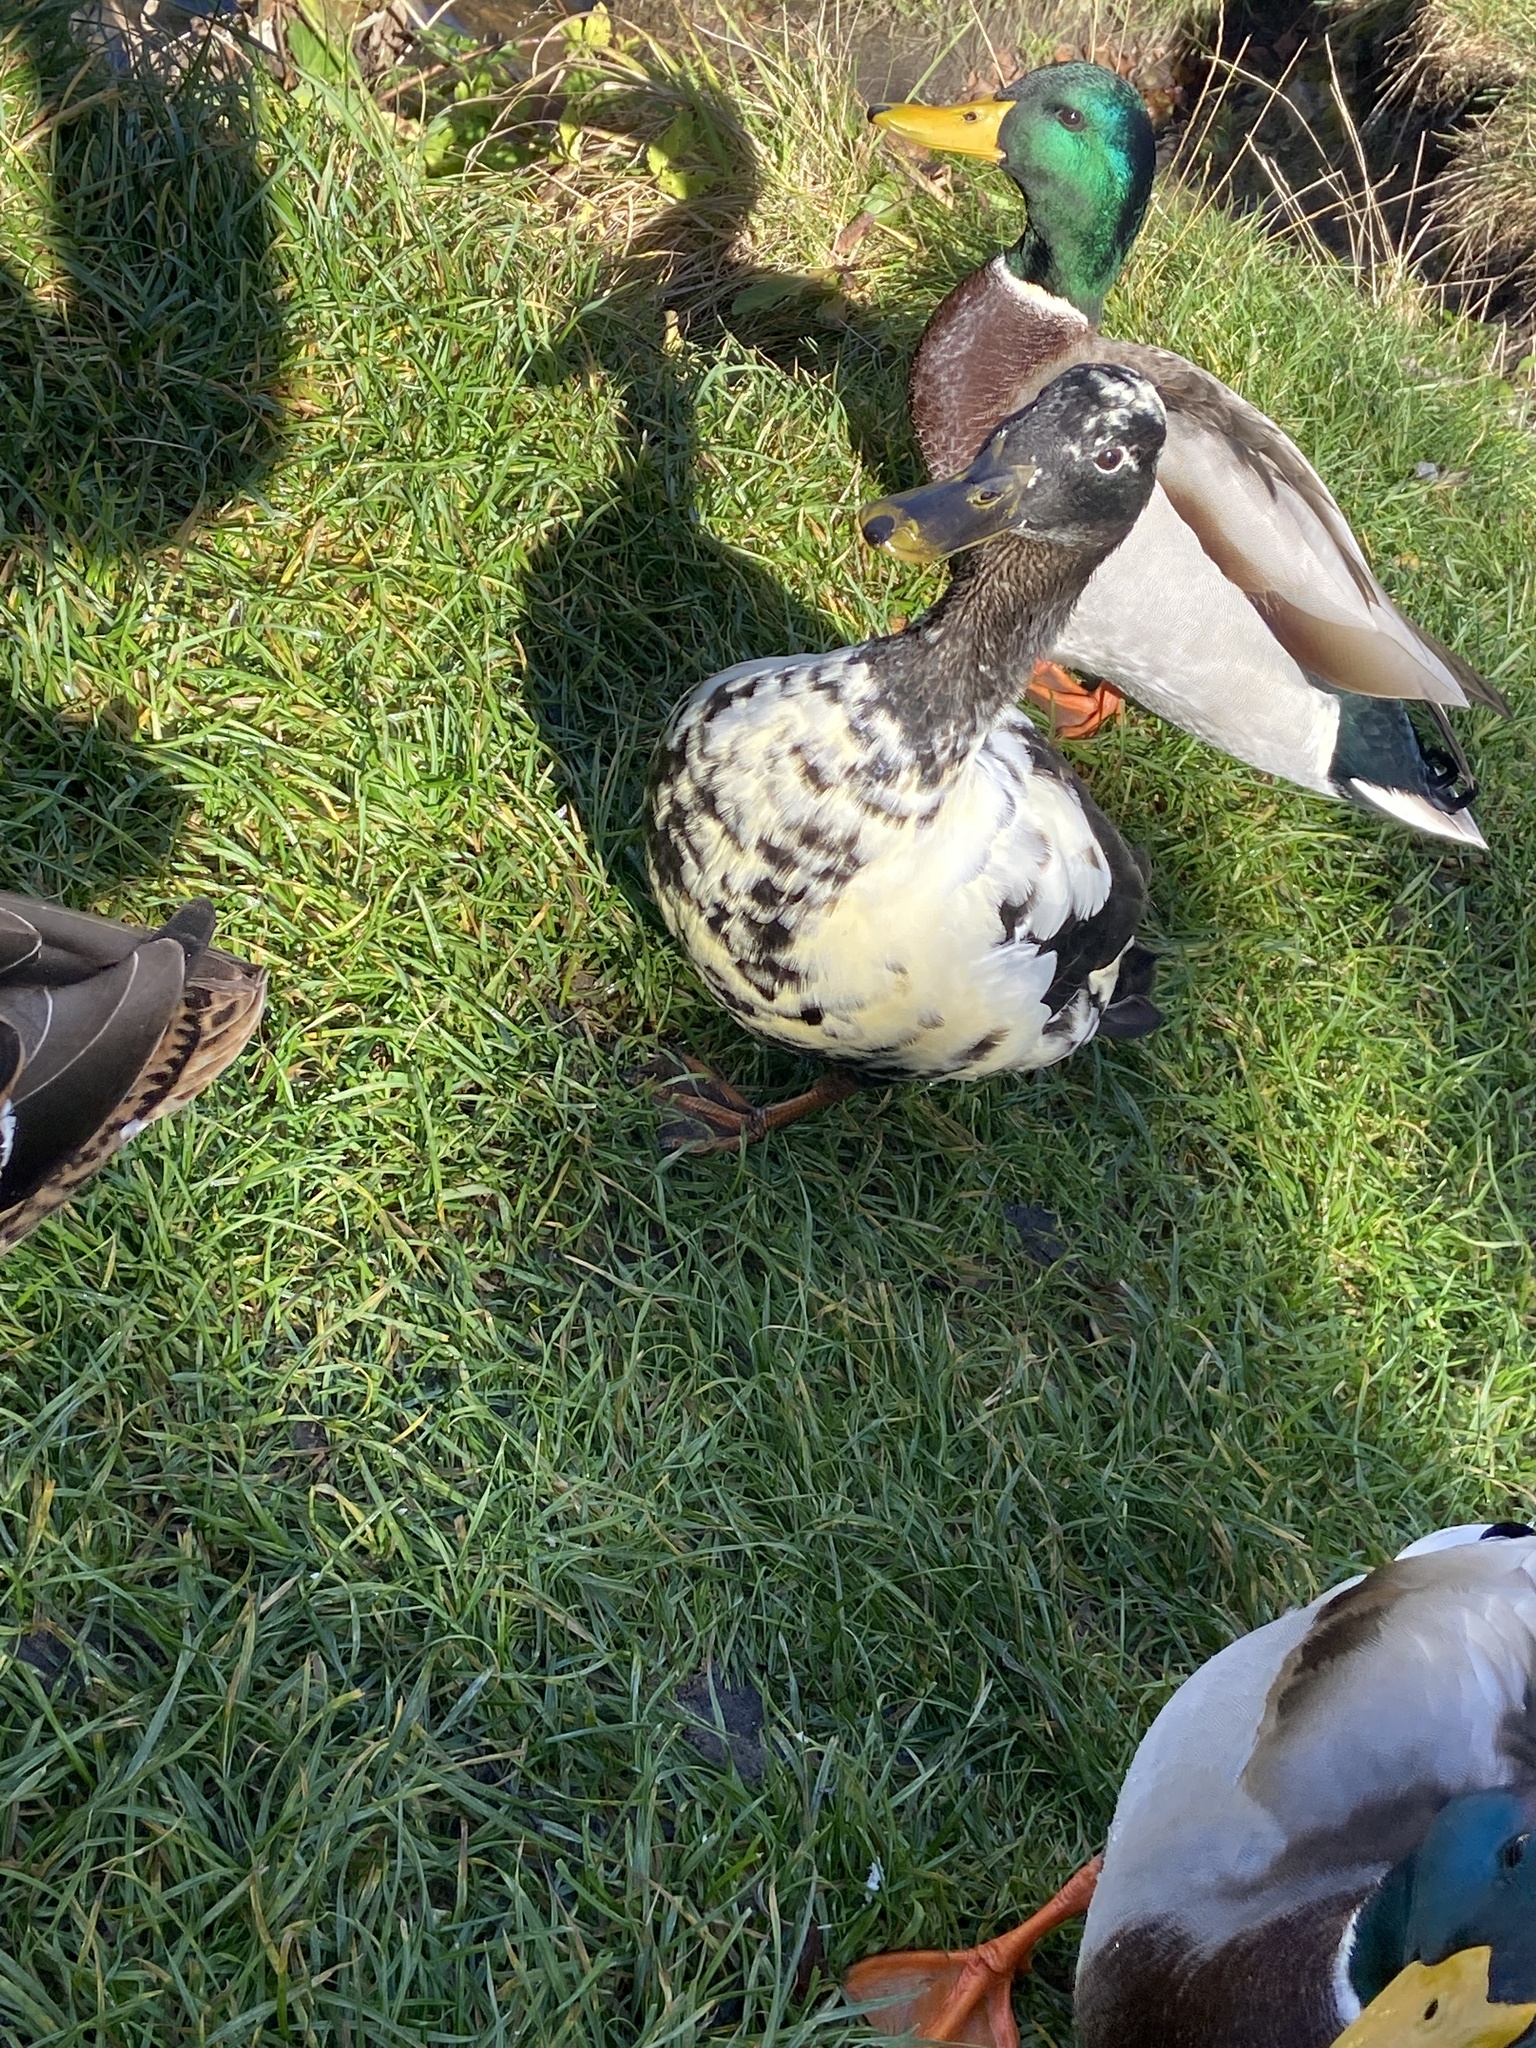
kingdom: Animalia
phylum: Chordata
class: Aves
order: Anseriformes
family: Anatidae
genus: Anas
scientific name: Anas platyrhynchos
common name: Mallard
